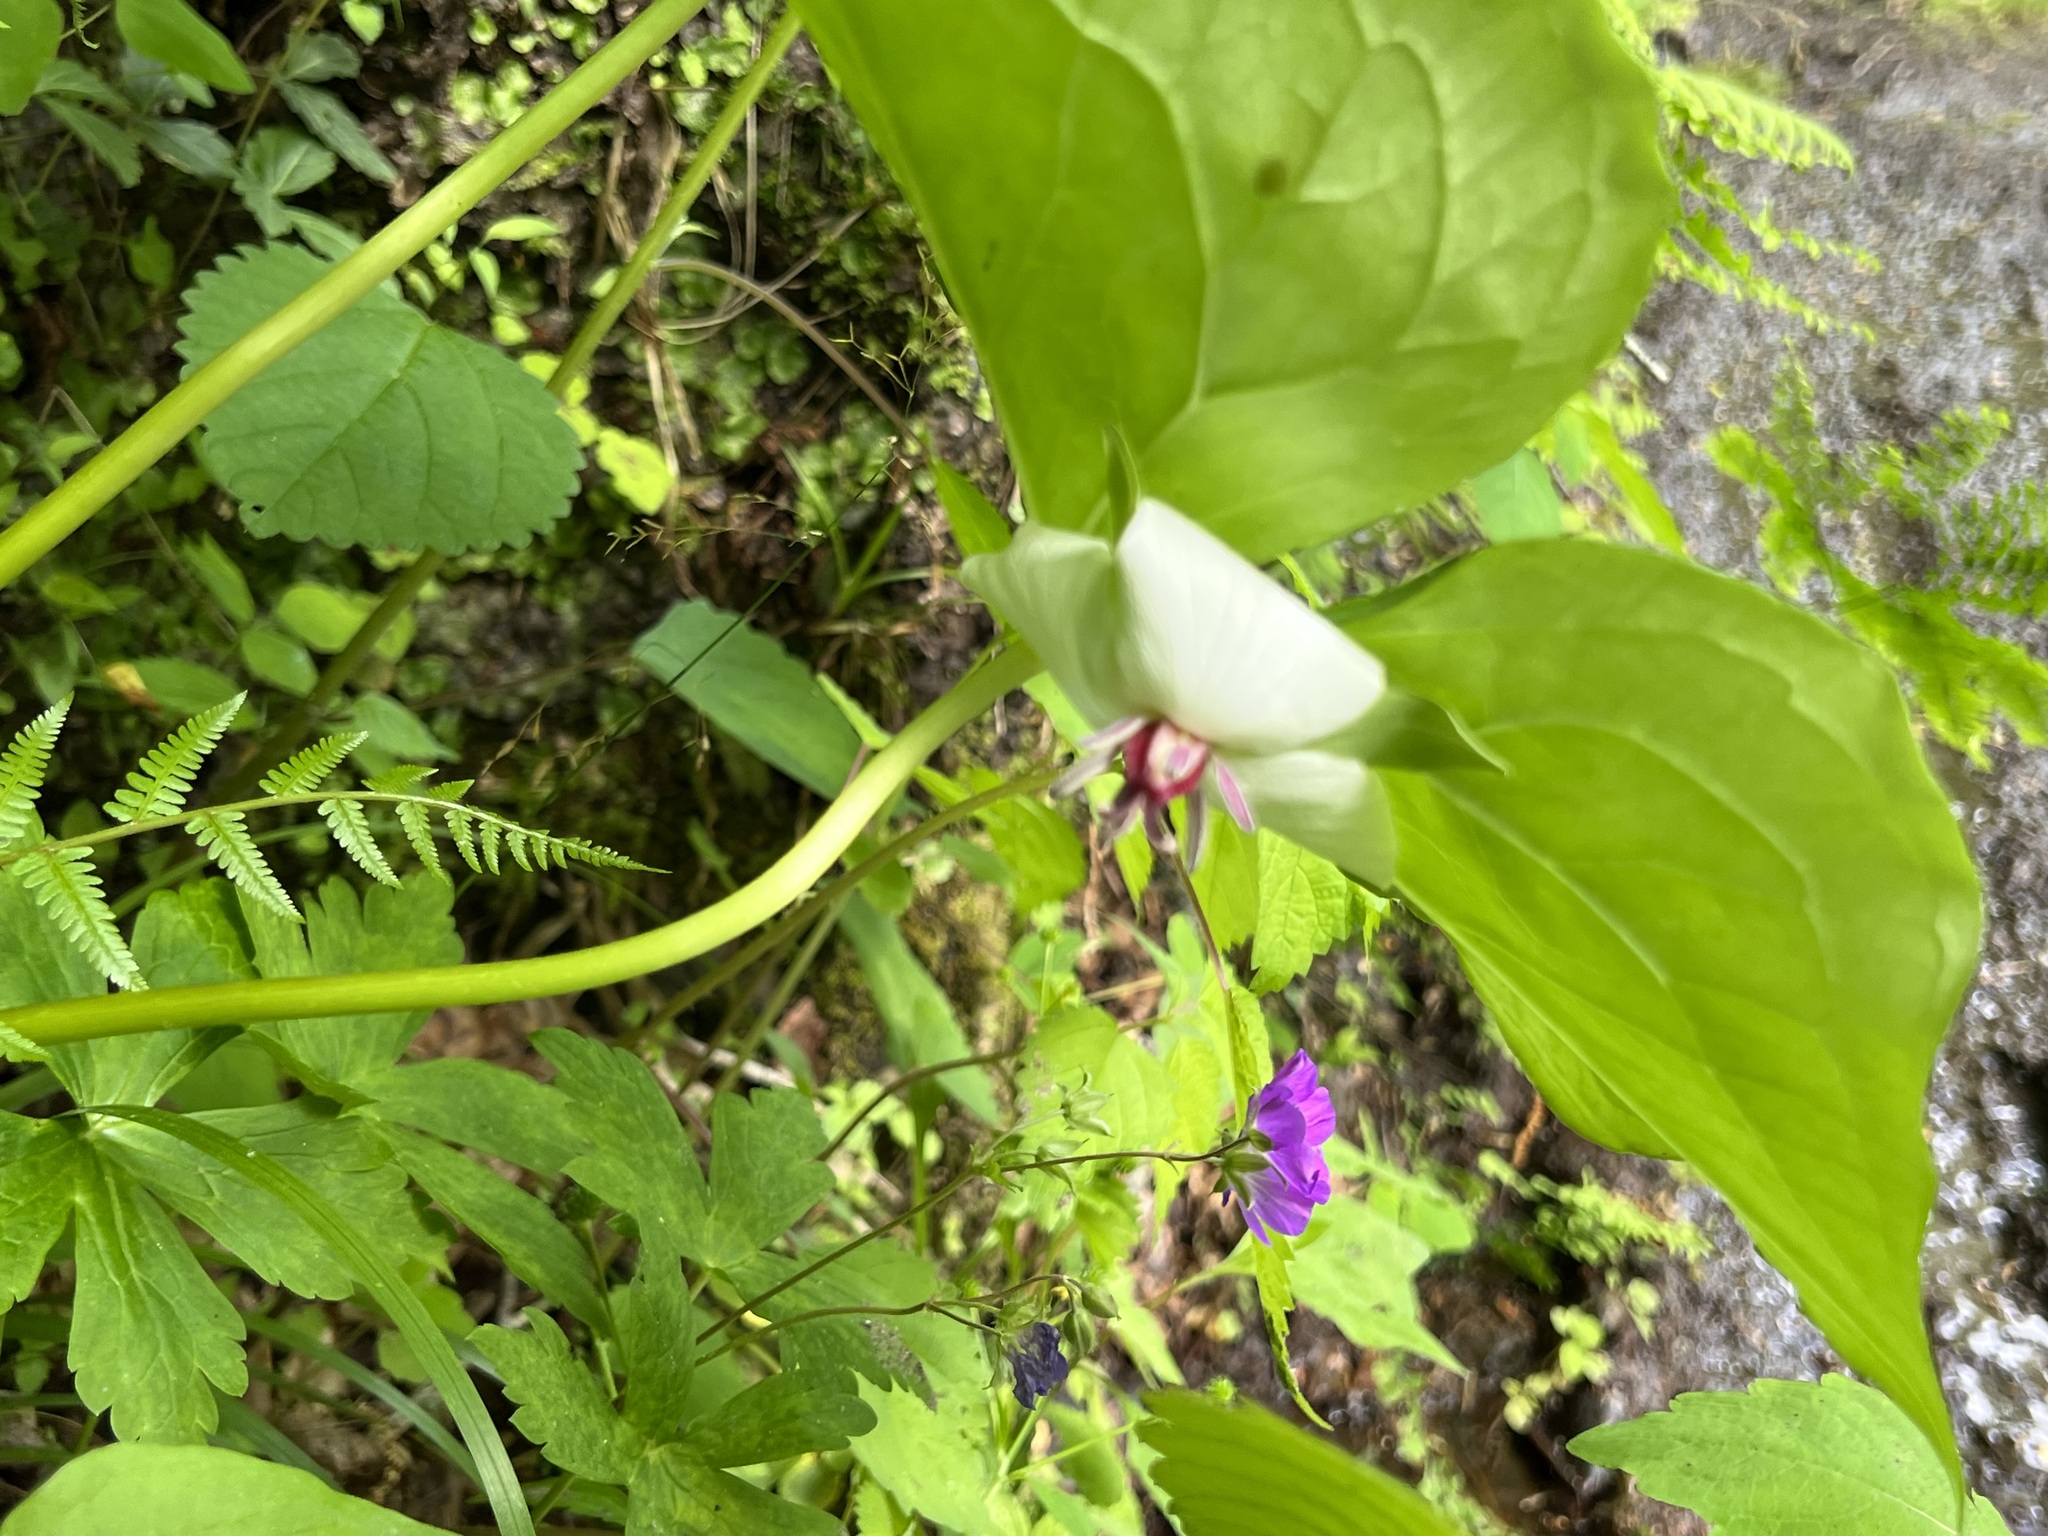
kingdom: Plantae
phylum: Tracheophyta
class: Liliopsida
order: Liliales
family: Melanthiaceae
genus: Trillium
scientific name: Trillium rugelii
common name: Ill-scented trillium
